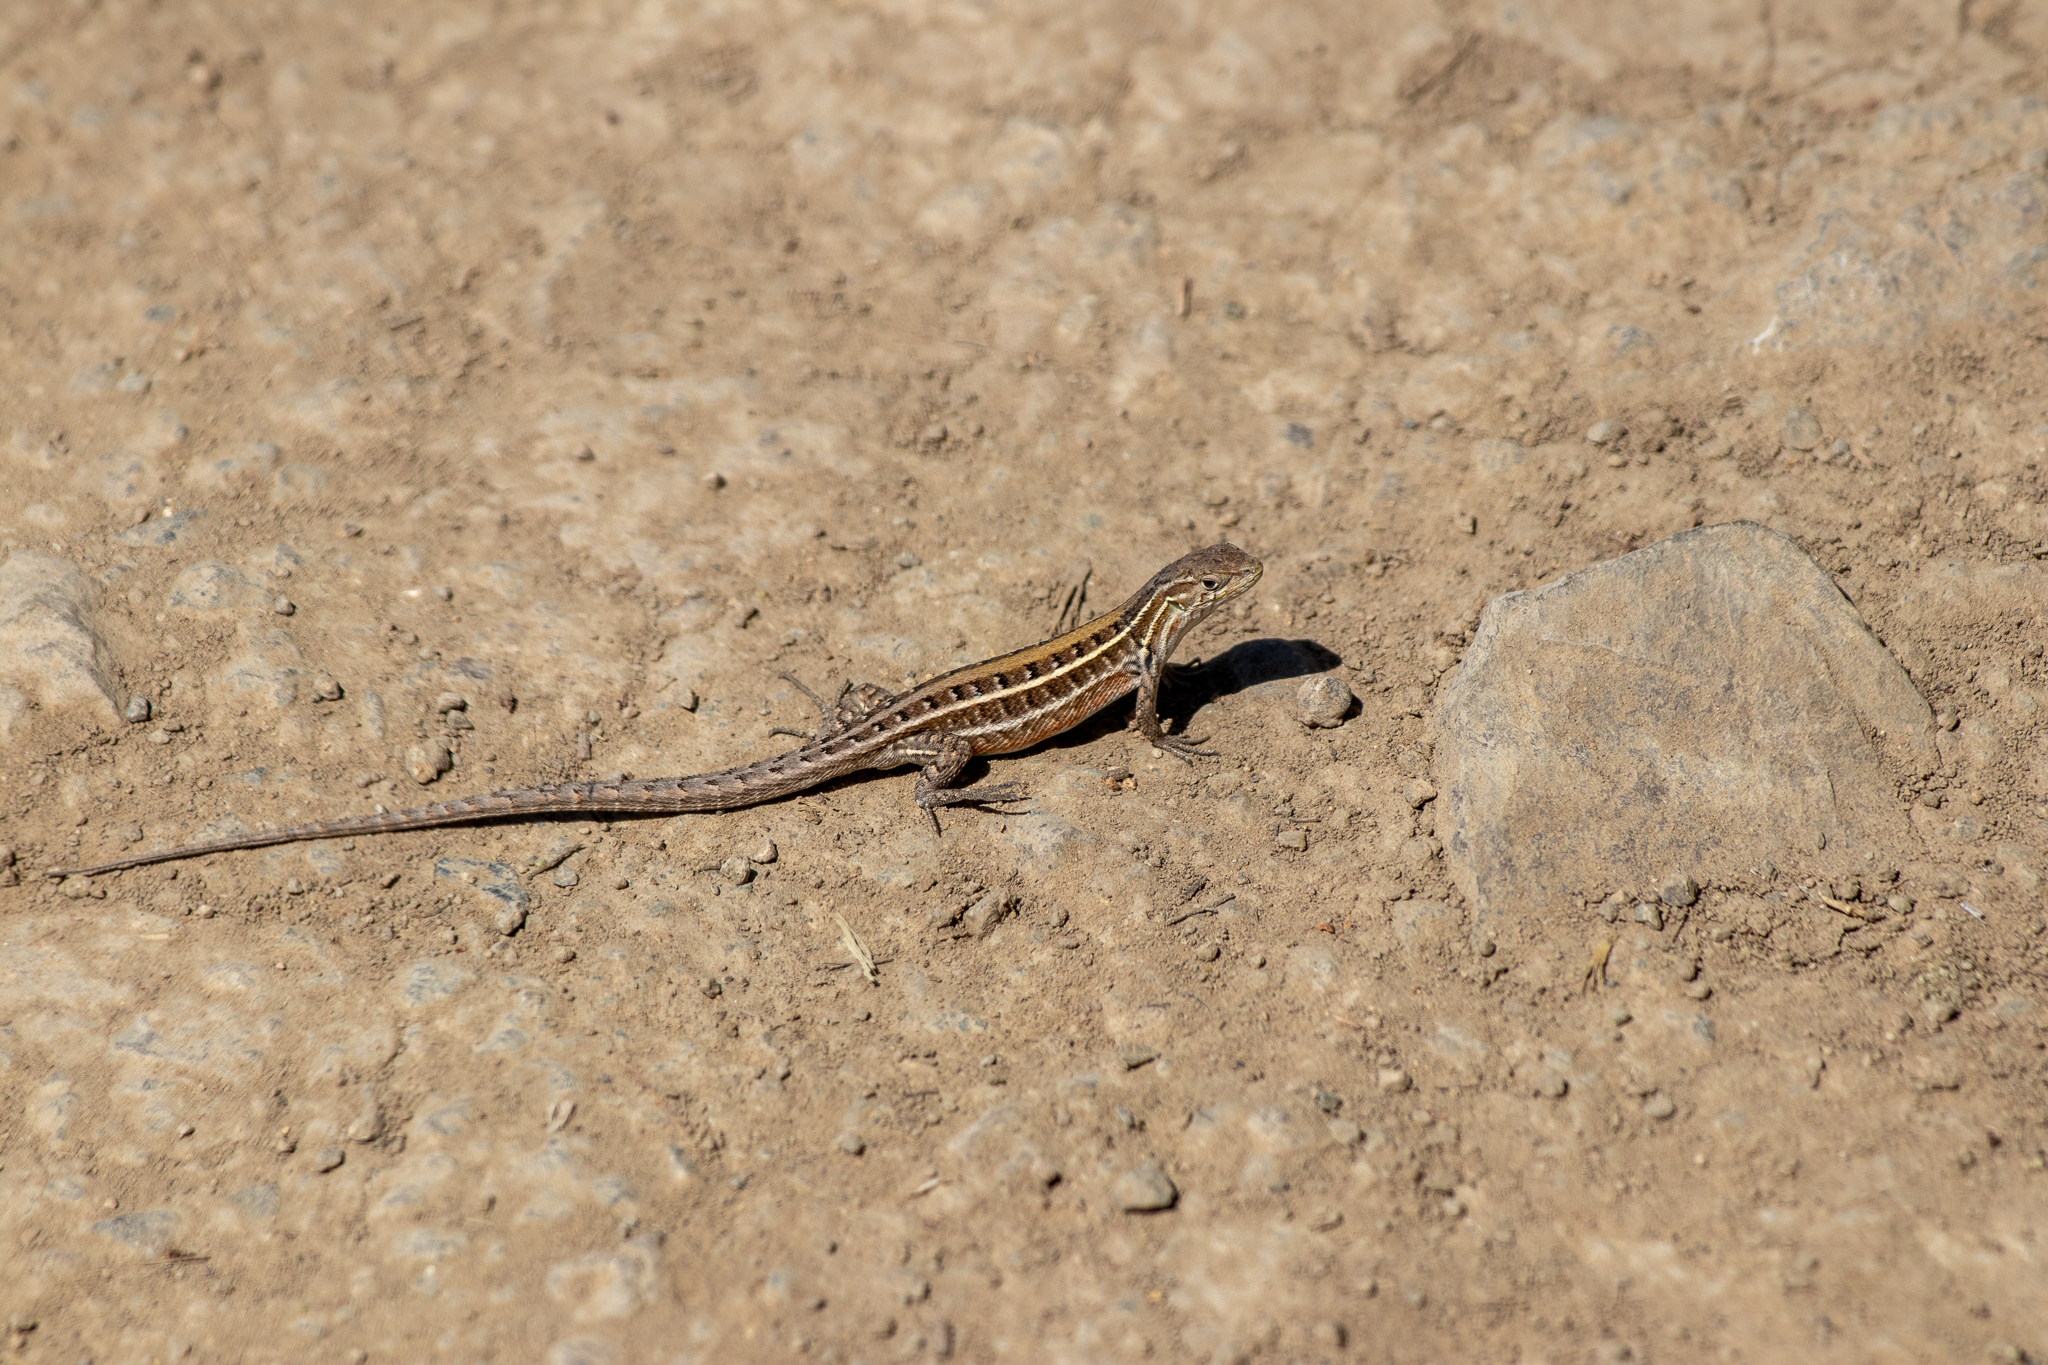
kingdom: Animalia
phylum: Chordata
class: Squamata
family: Liolaemidae
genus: Liolaemus
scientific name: Liolaemus lemniscatus
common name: Wreath tree iguana
